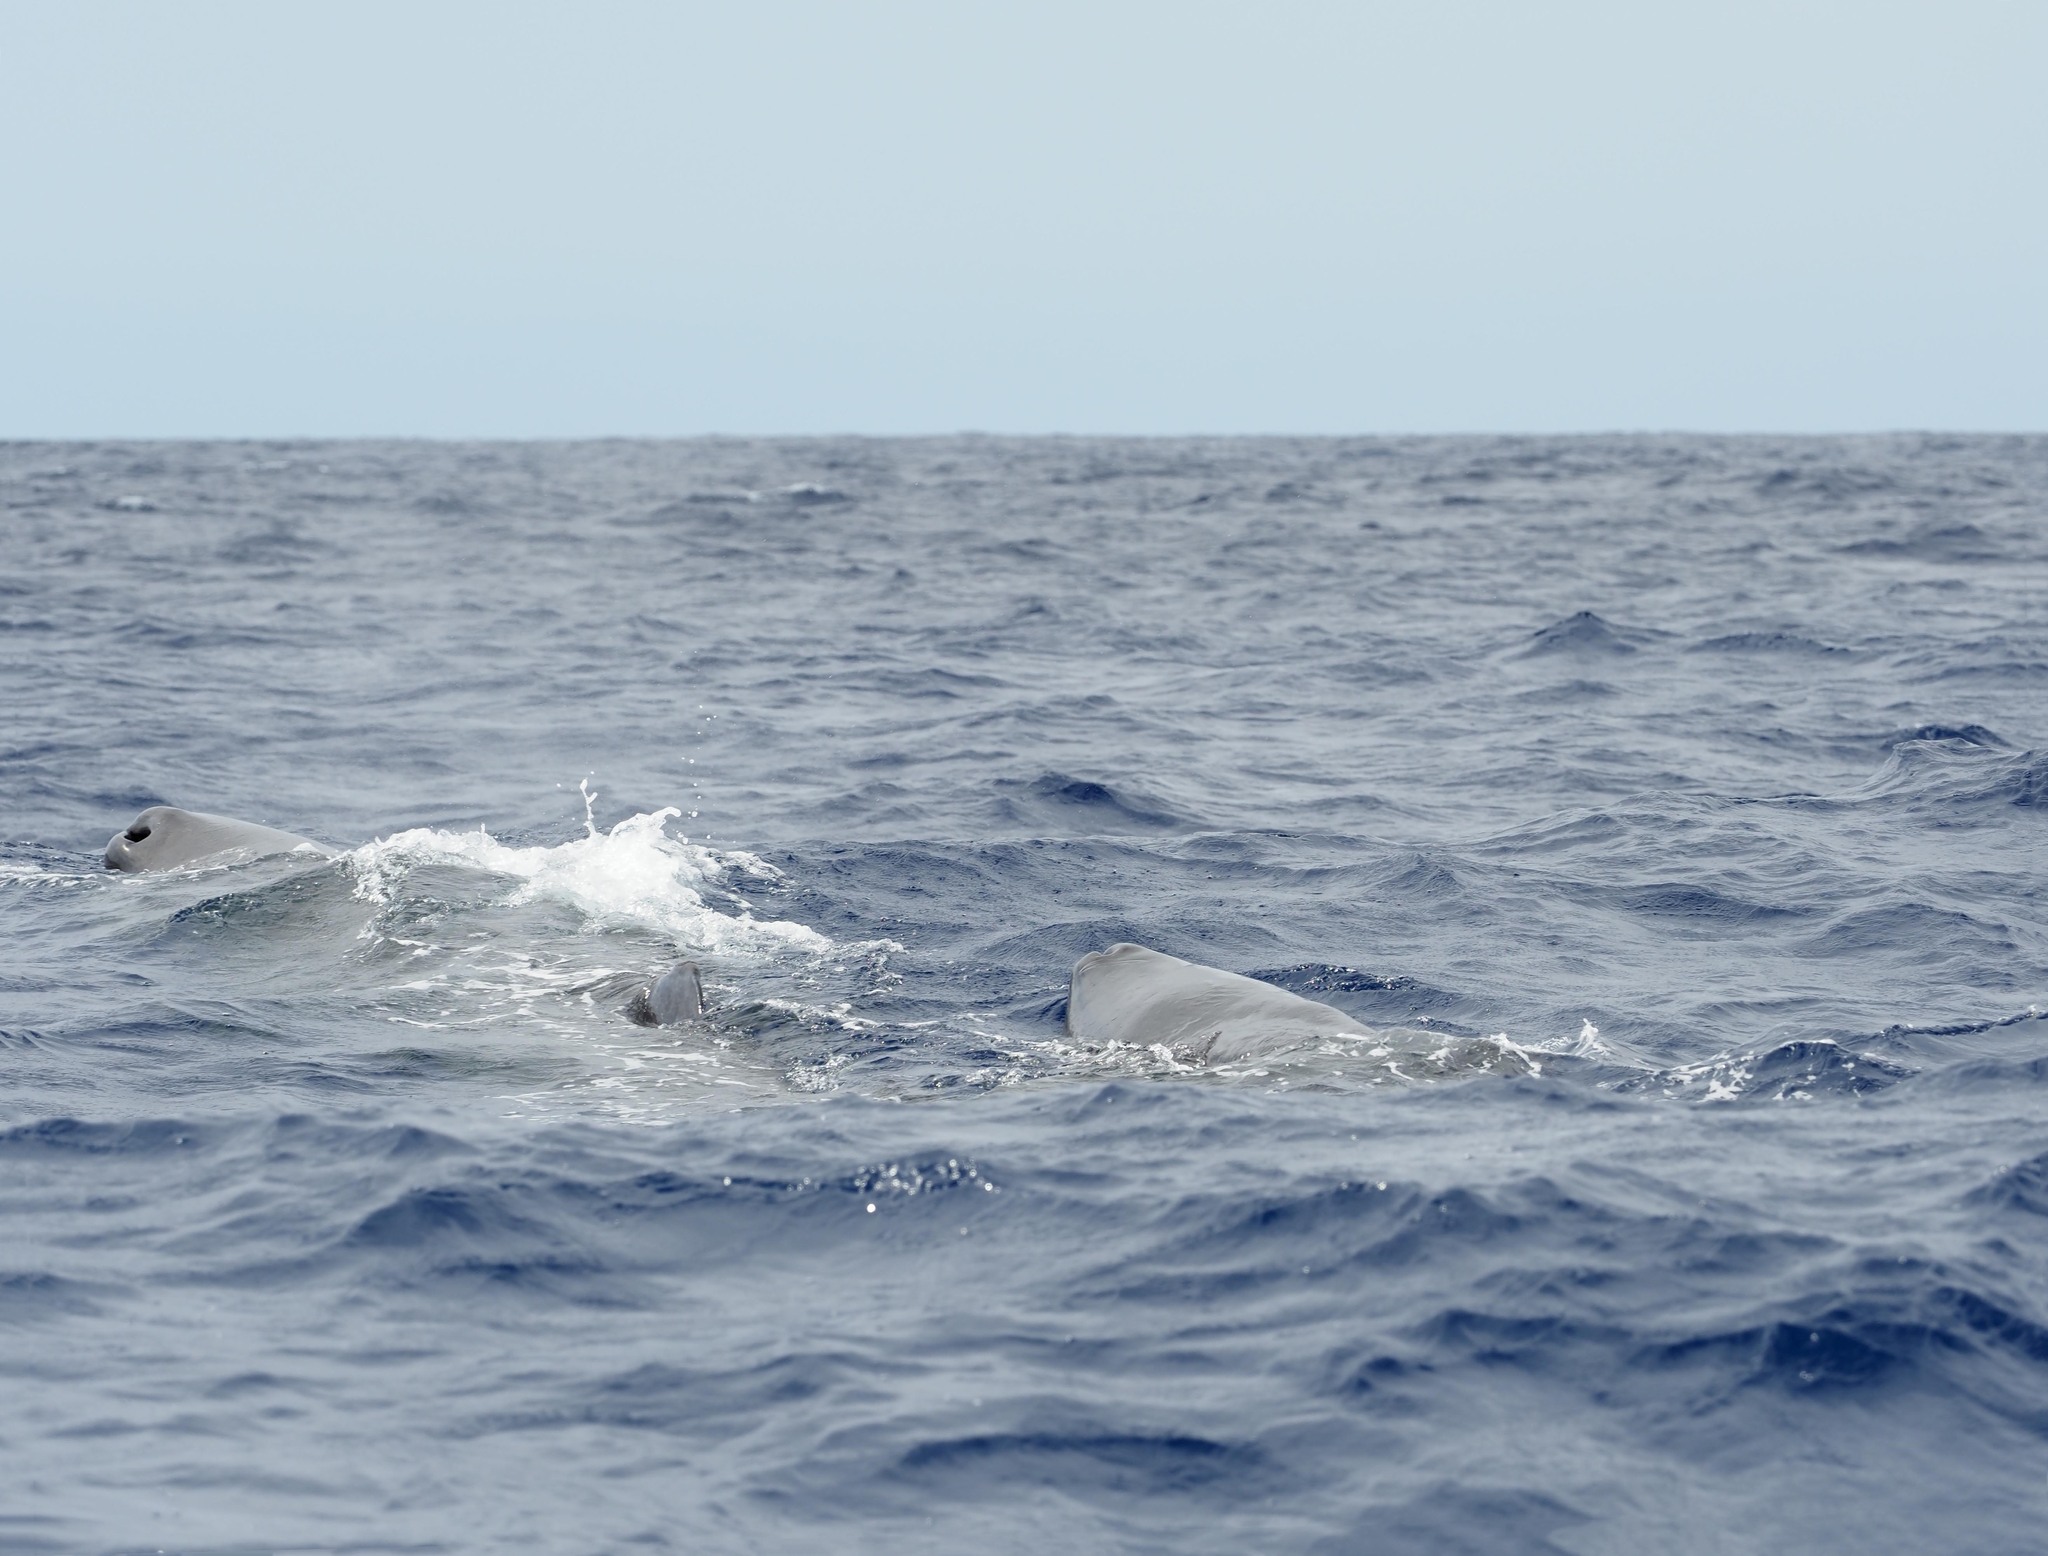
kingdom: Animalia
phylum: Chordata
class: Mammalia
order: Cetacea
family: Physeteridae
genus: Physeter
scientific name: Physeter macrocephalus
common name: Sperm whale
